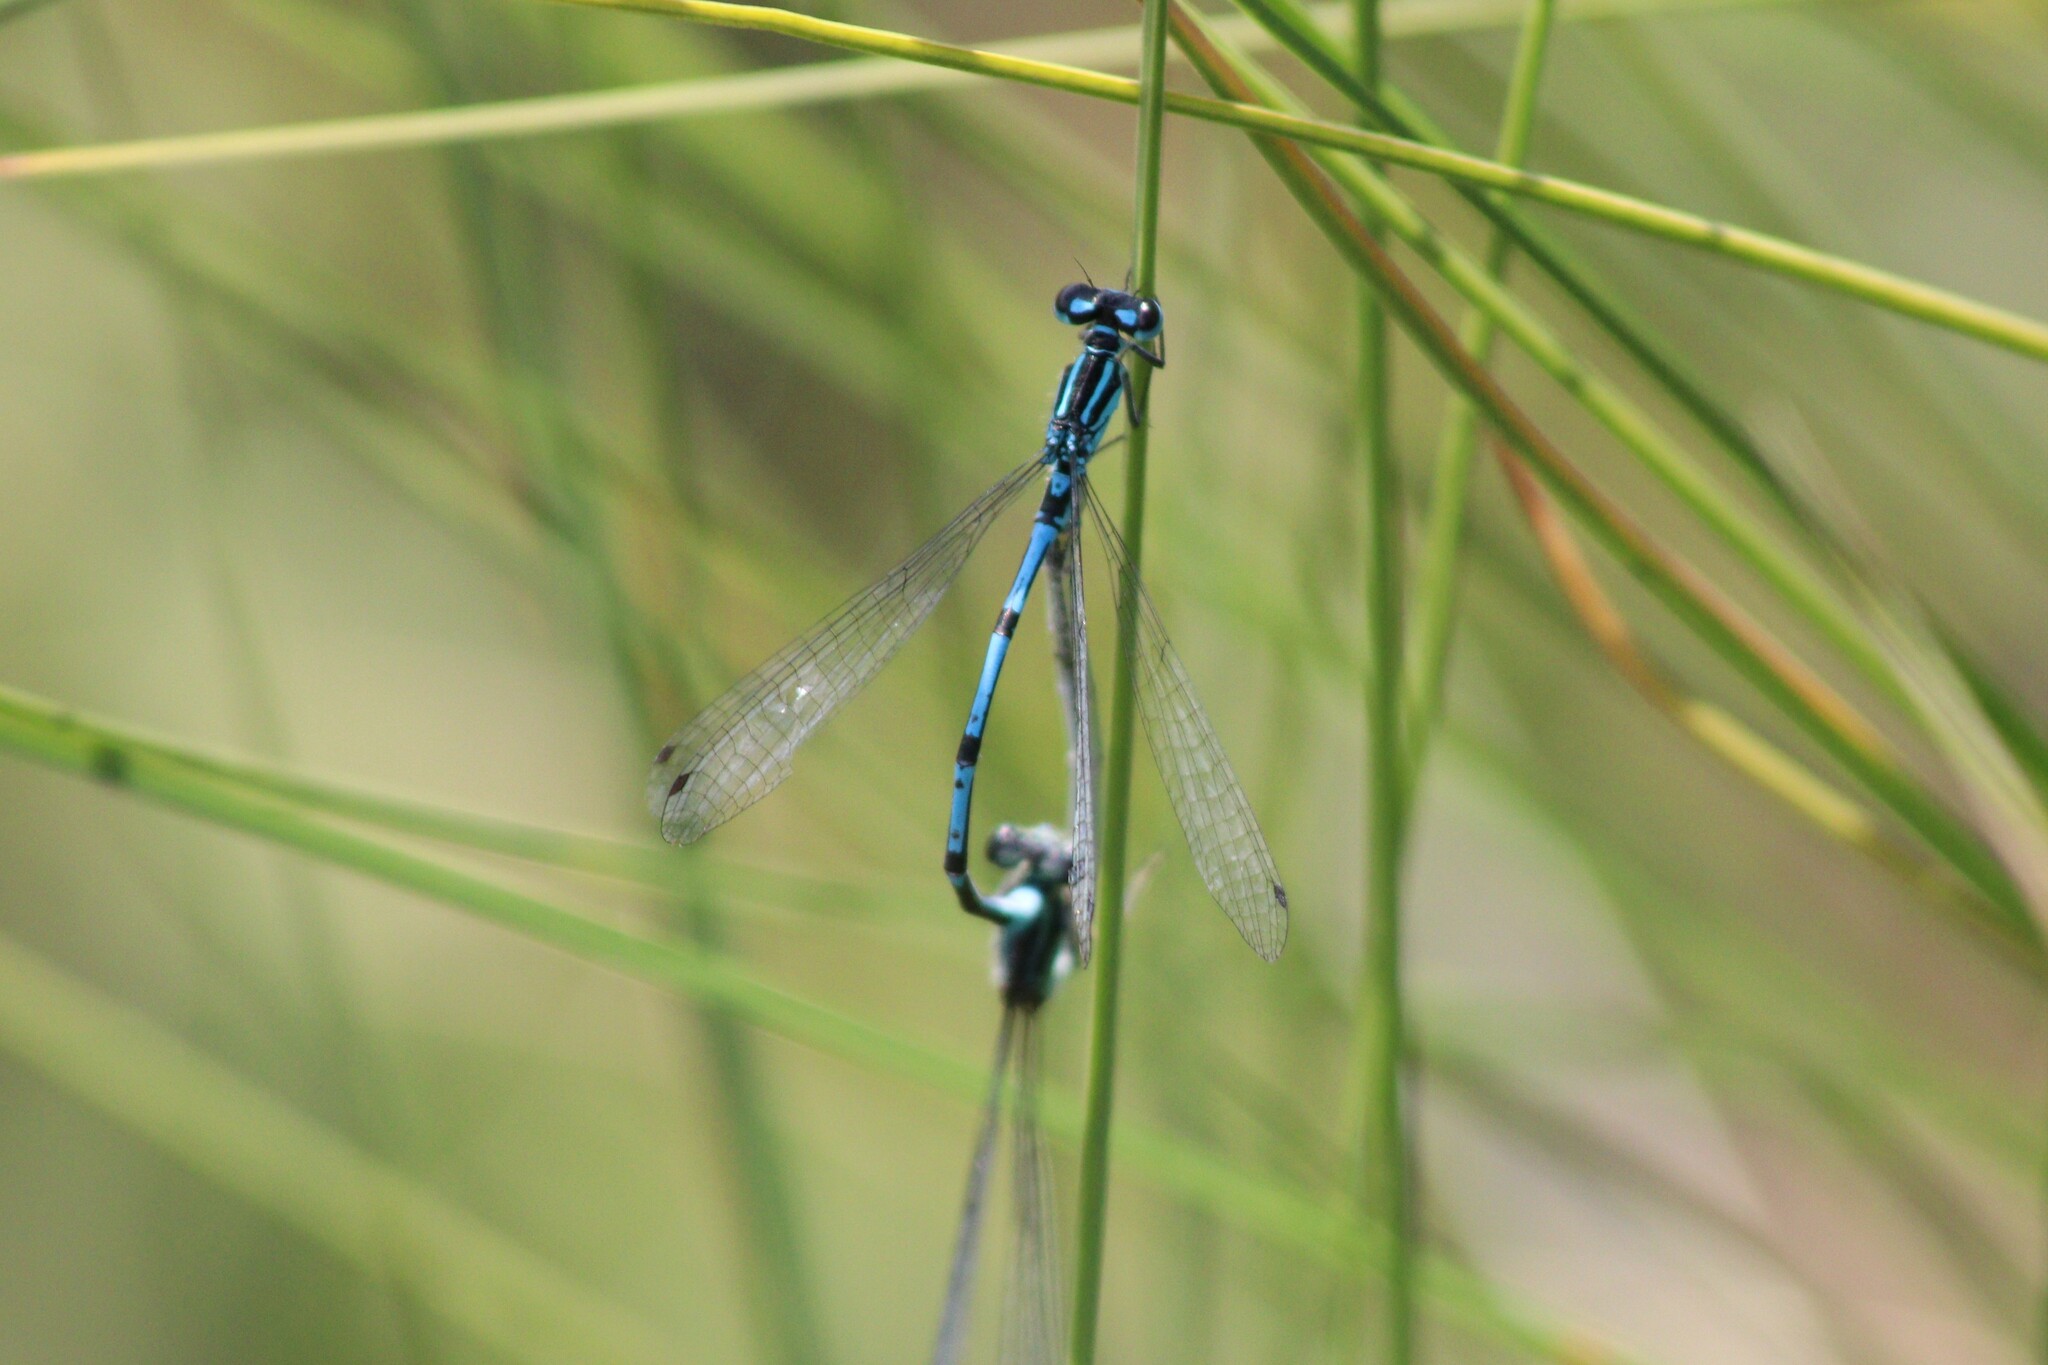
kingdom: Animalia
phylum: Arthropoda
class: Insecta
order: Odonata
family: Coenagrionidae
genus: Coenagrion
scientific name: Coenagrion puella
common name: Azure damselfly
